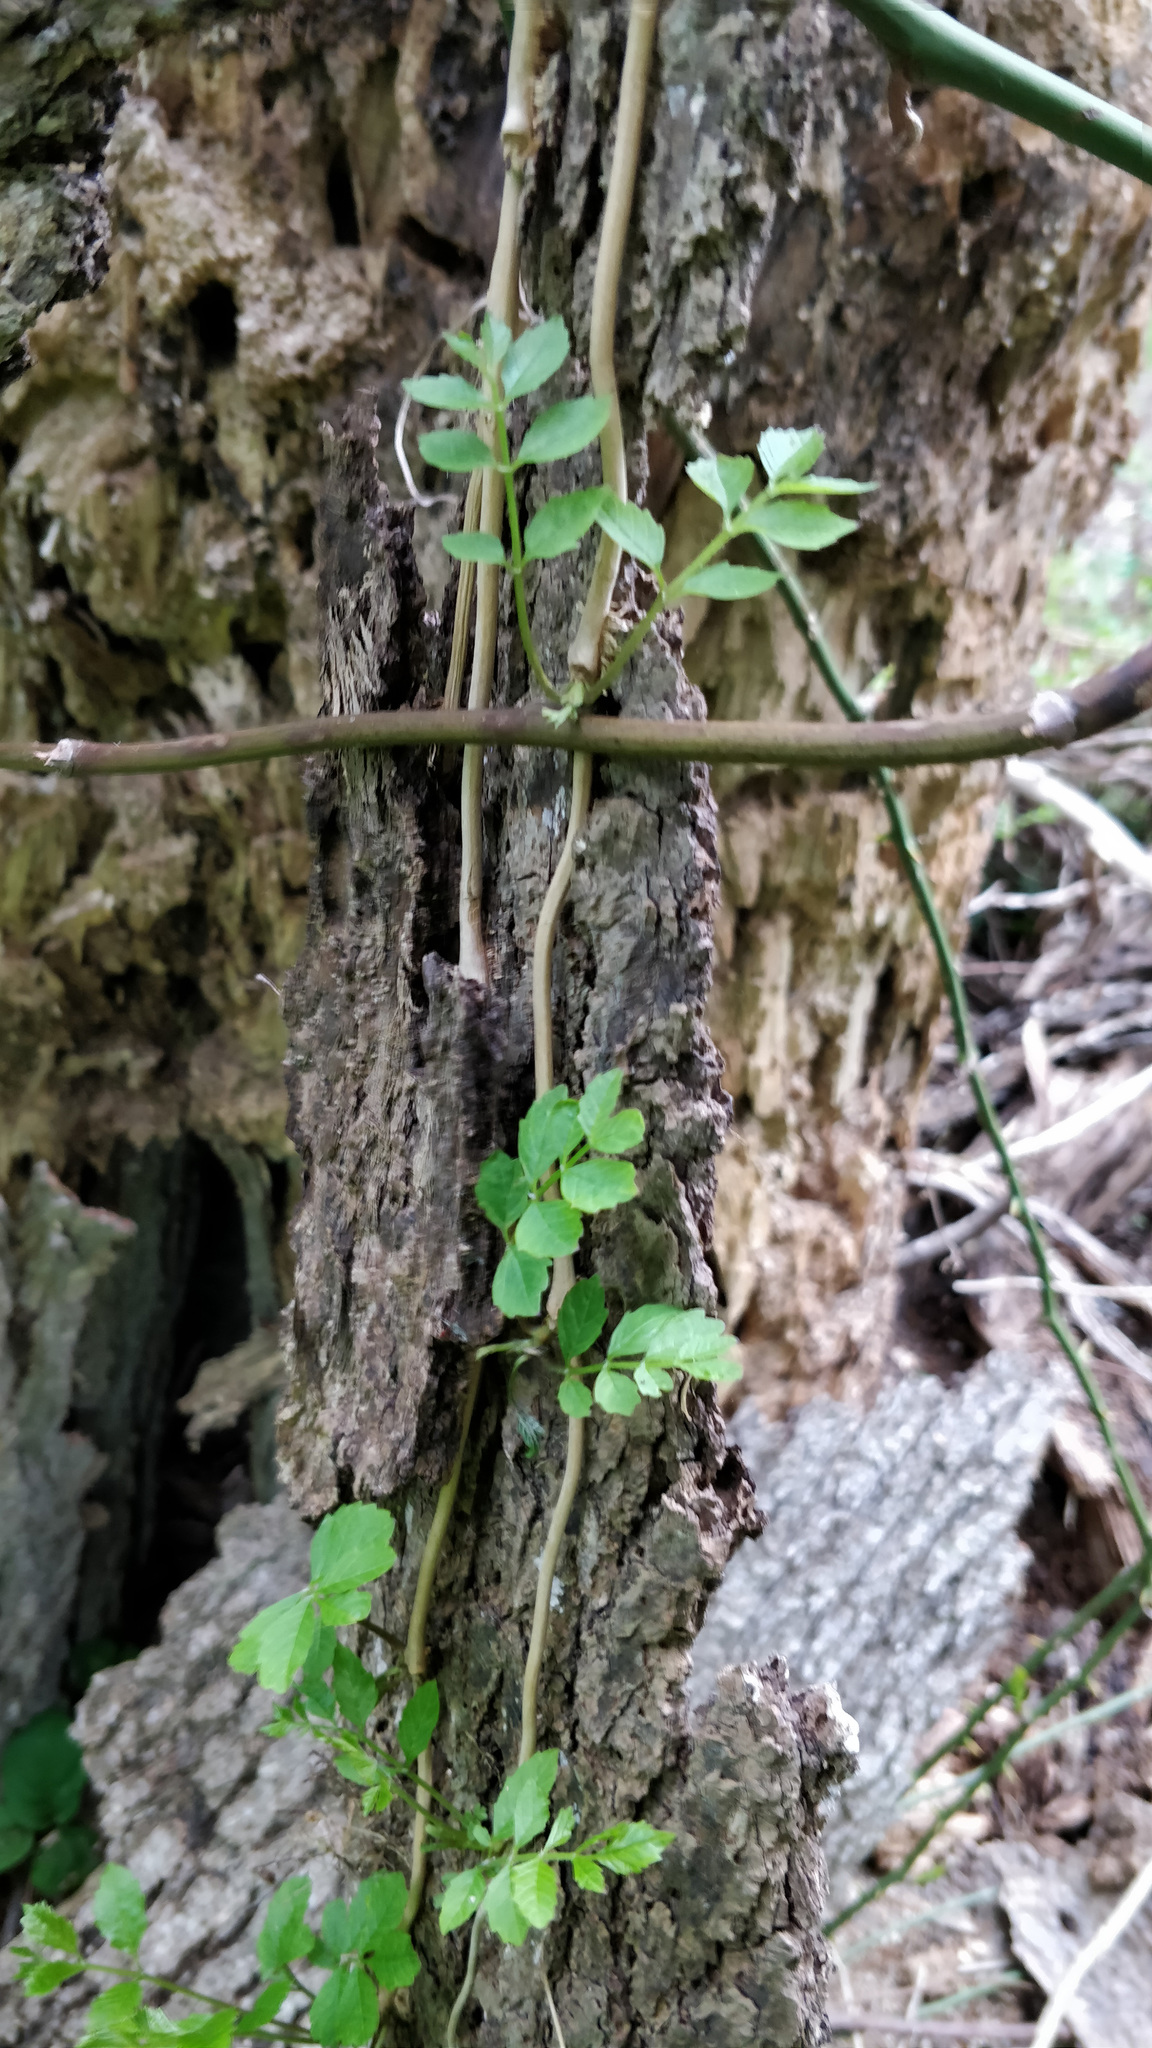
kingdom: Plantae
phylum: Tracheophyta
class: Magnoliopsida
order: Lamiales
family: Bignoniaceae
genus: Campsis
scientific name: Campsis radicans
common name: Trumpet-creeper
